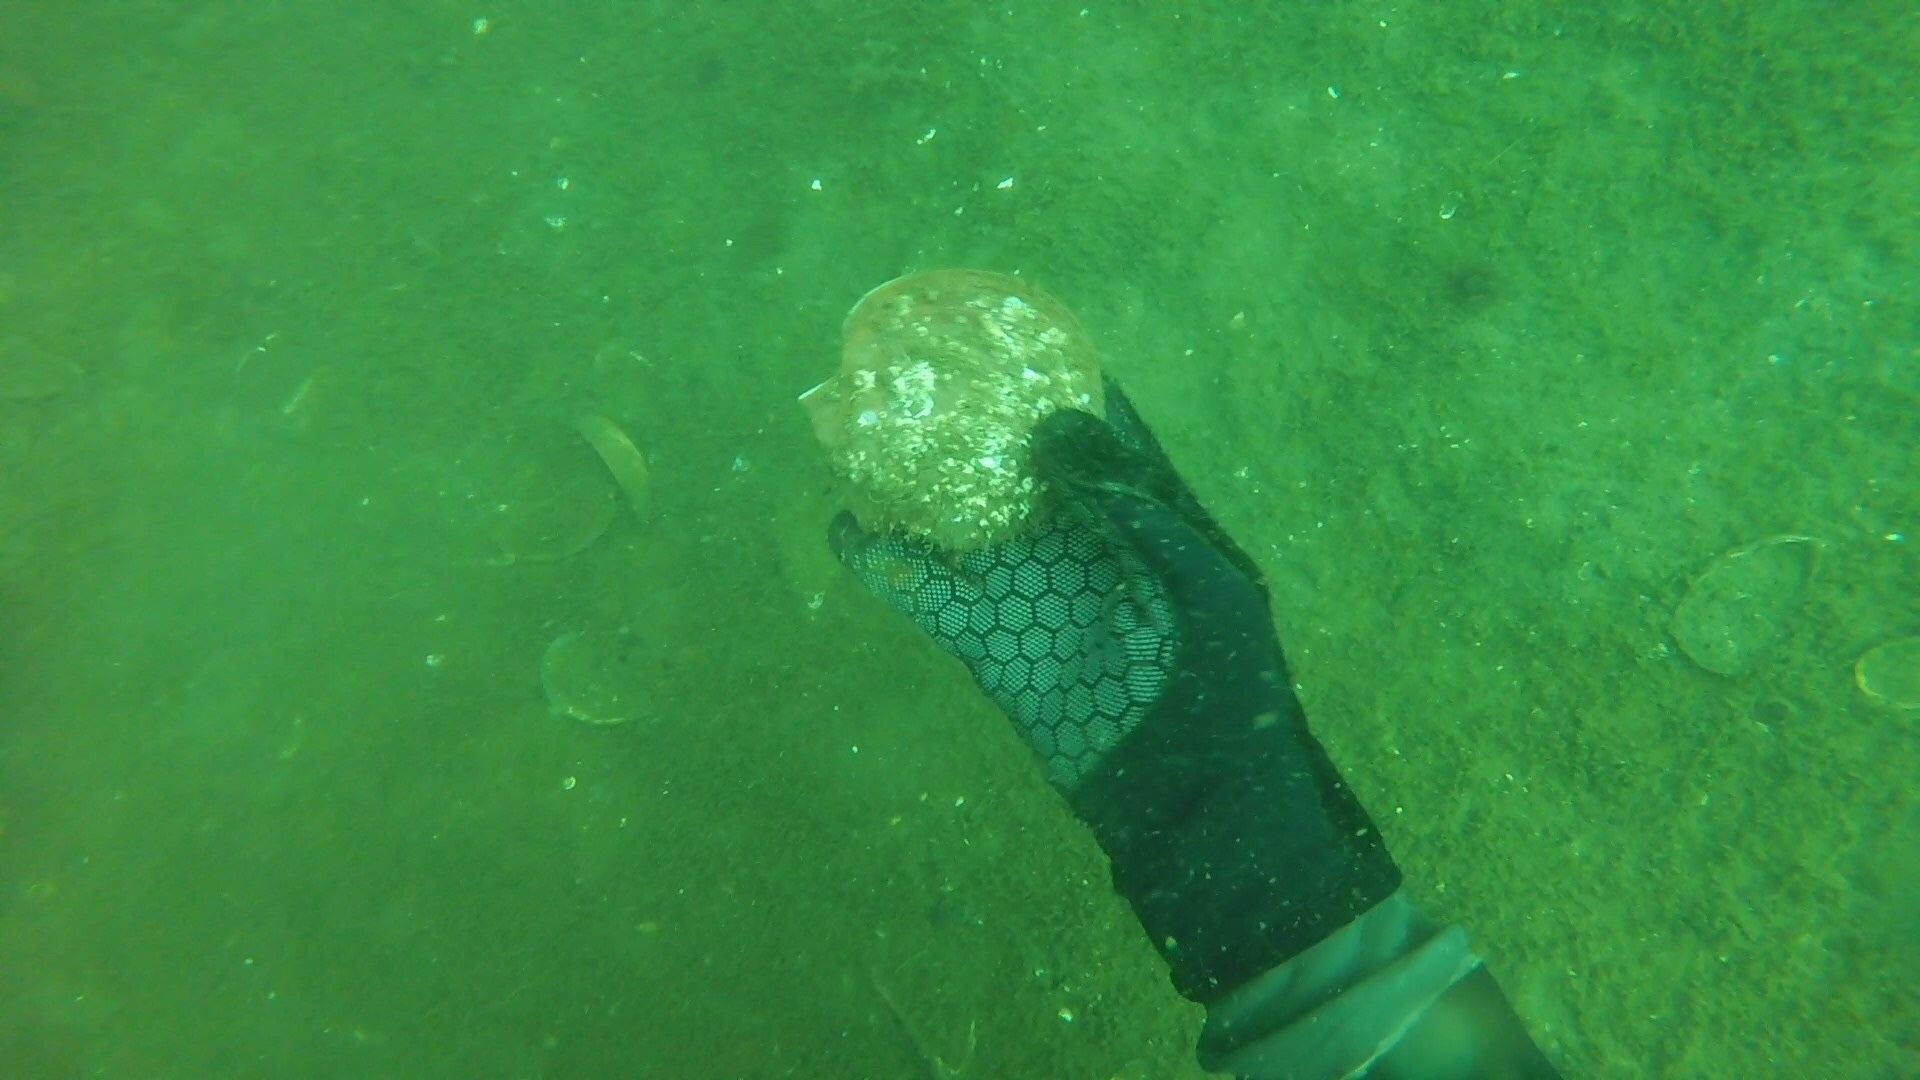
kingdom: Animalia
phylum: Mollusca
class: Bivalvia
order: Pectinida
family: Pectinidae
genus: Placopecten
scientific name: Placopecten magellanicus
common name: American sea scallop
